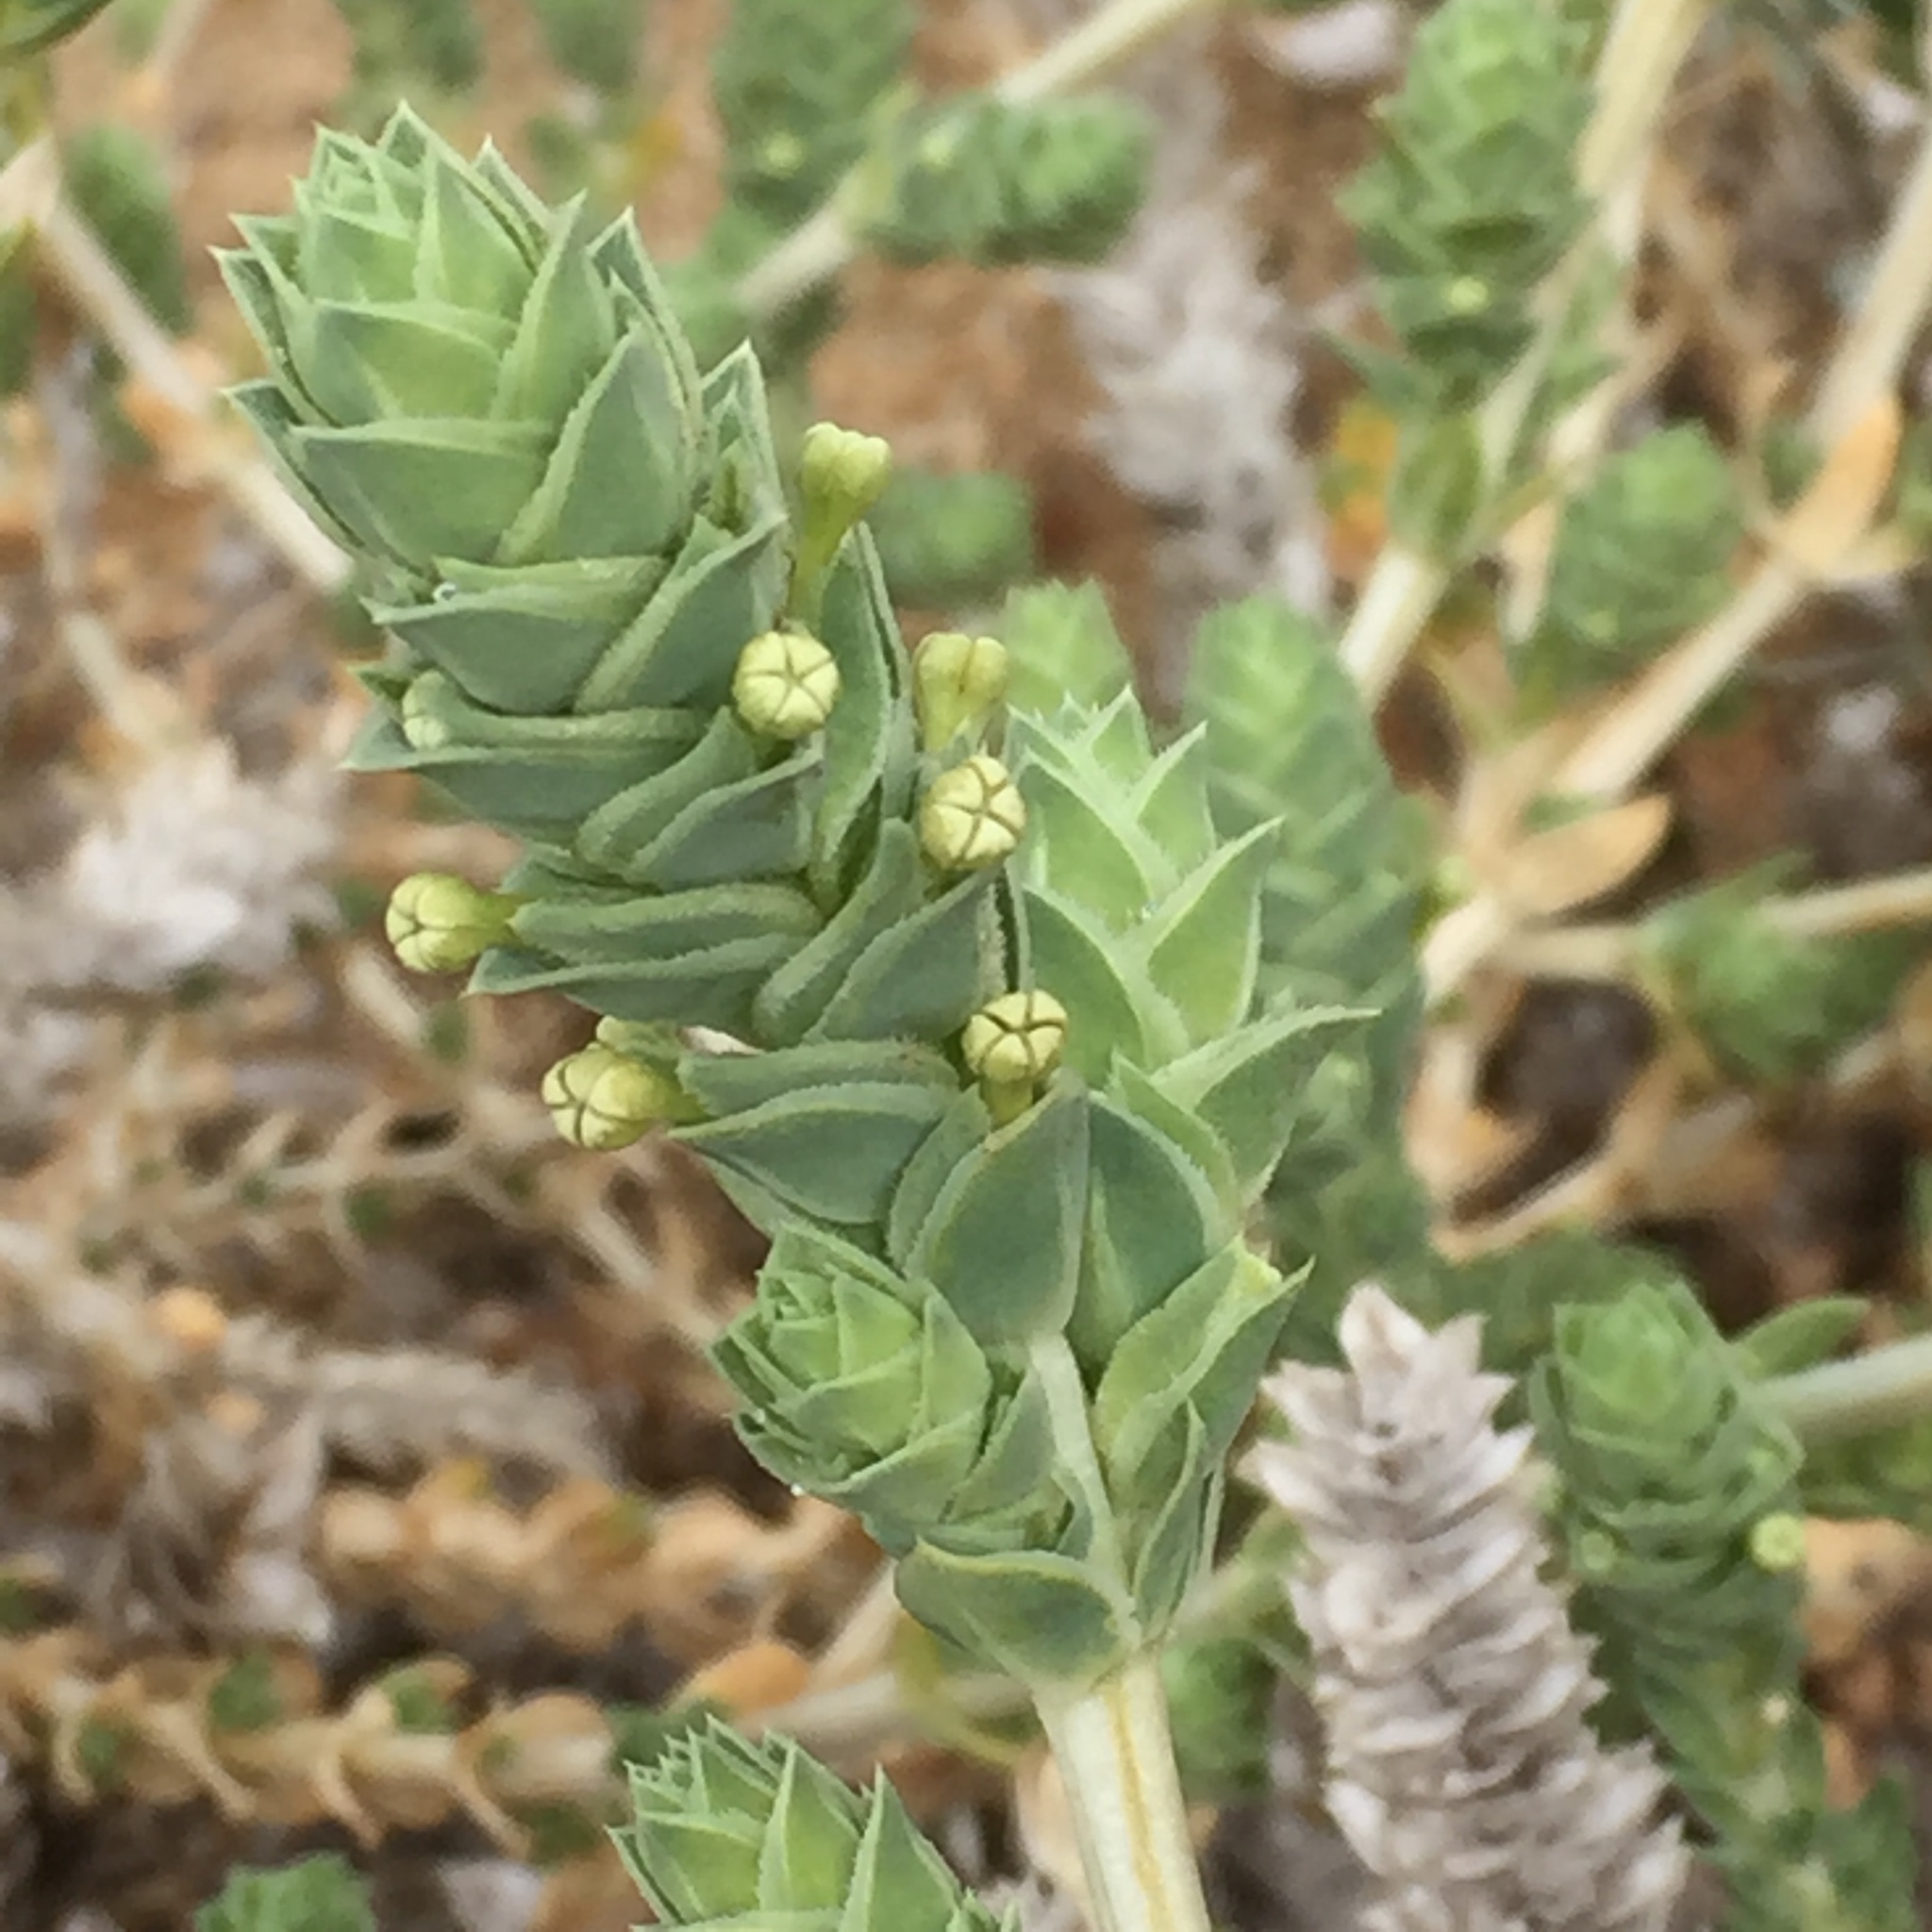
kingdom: Plantae
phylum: Tracheophyta
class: Magnoliopsida
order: Gentianales
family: Rubiaceae
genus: Crucianella
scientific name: Crucianella maritima
